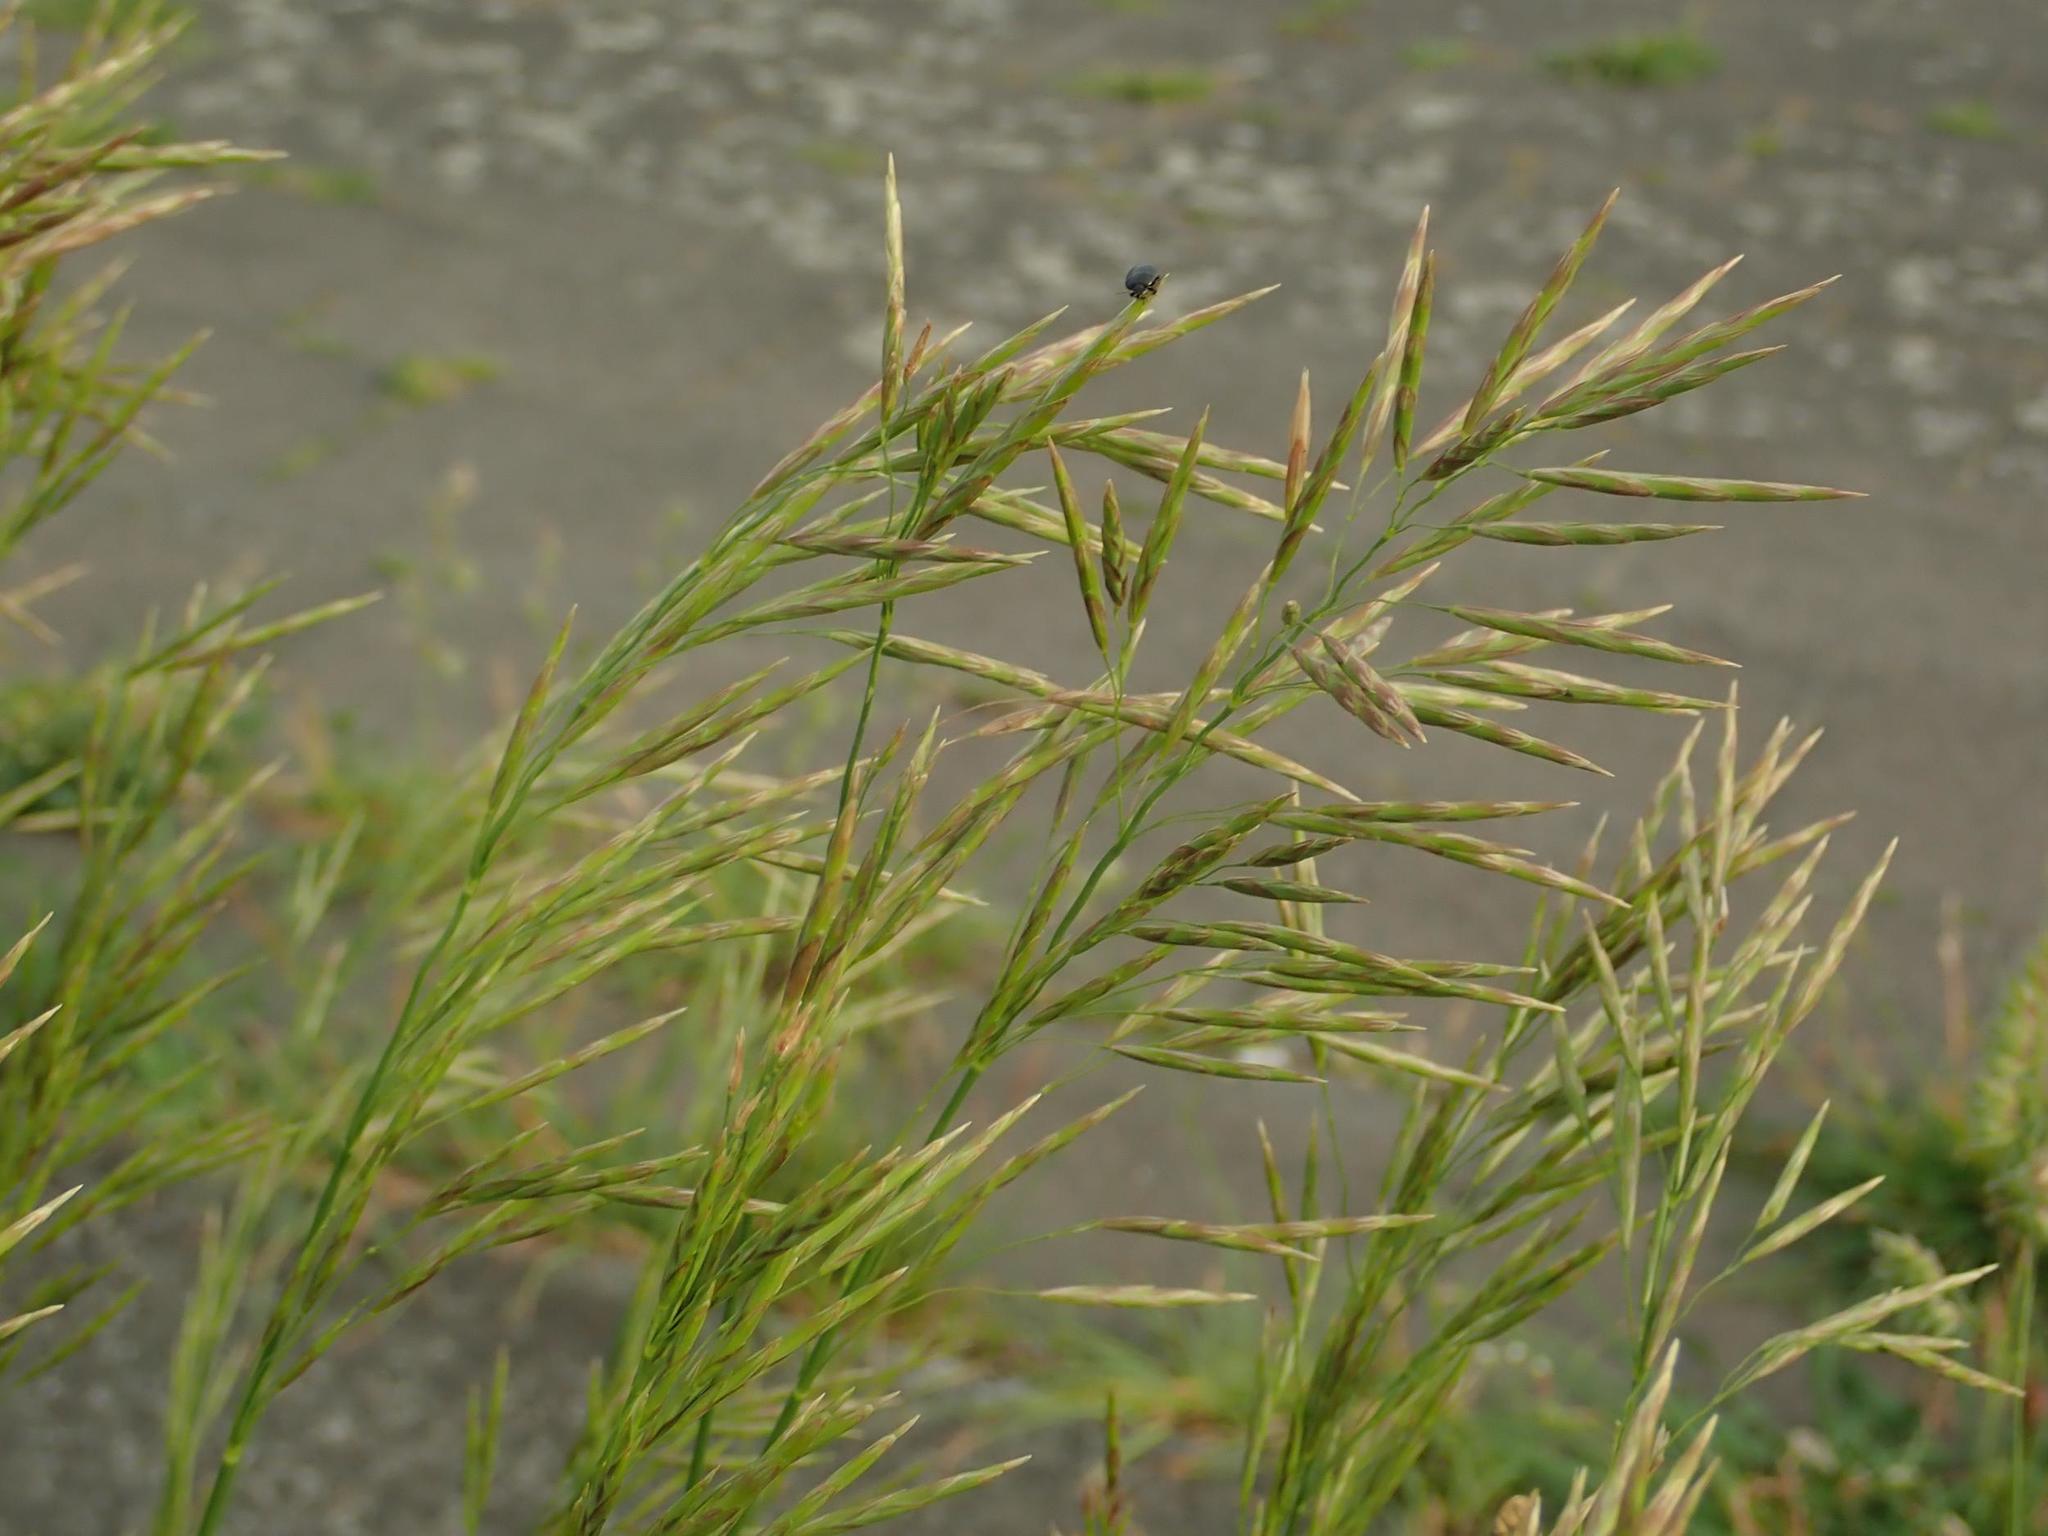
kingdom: Plantae
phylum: Tracheophyta
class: Liliopsida
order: Poales
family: Poaceae
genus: Bromus
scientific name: Bromus inermis
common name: Smooth brome
